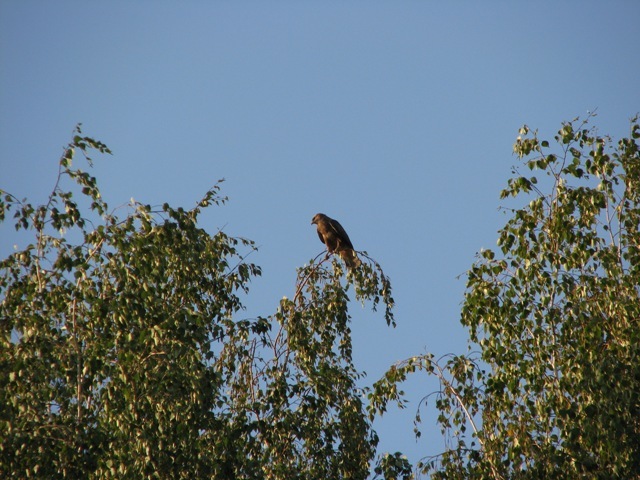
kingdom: Animalia
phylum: Chordata
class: Aves
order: Accipitriformes
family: Accipitridae
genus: Buteo
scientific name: Buteo buteo
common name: Common buzzard
